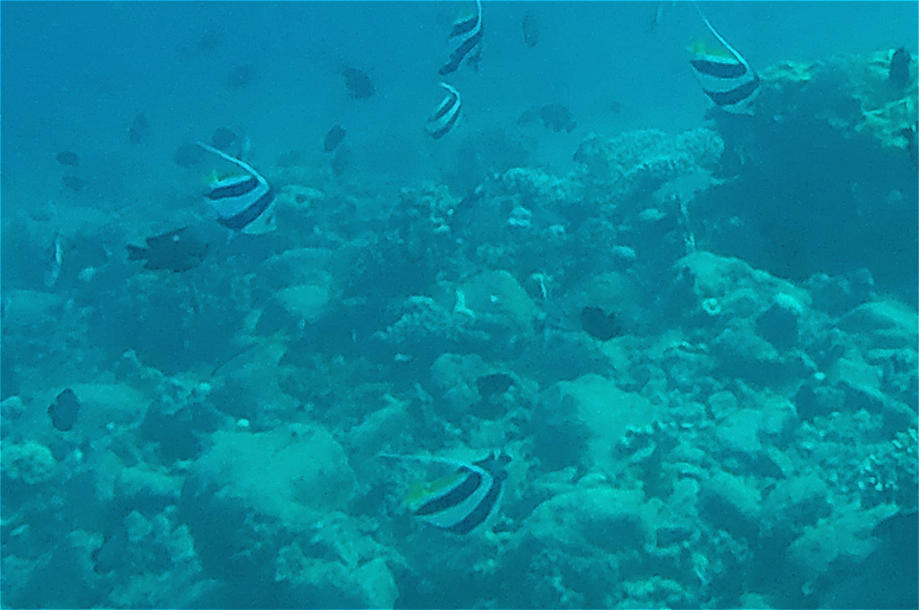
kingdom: Animalia
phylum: Chordata
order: Perciformes
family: Chaetodontidae
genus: Heniochus
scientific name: Heniochus diphreutes
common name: Pennantfish
